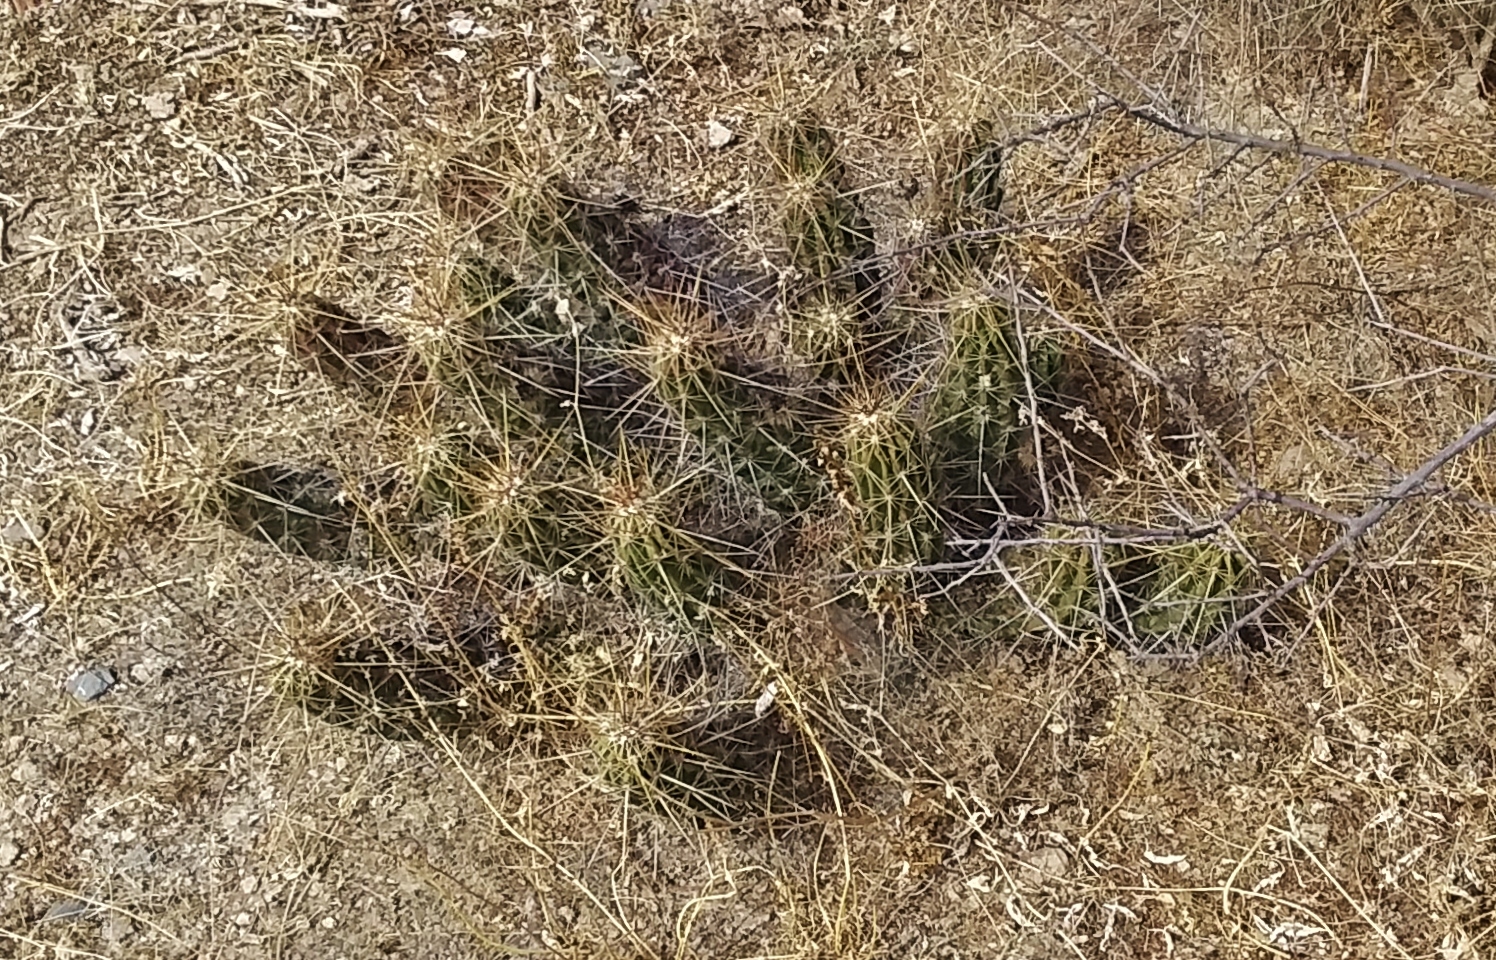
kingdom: Plantae
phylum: Tracheophyta
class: Magnoliopsida
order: Caryophyllales
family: Cactaceae
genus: Echinocereus
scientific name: Echinocereus enneacanthus
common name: Pitaya
